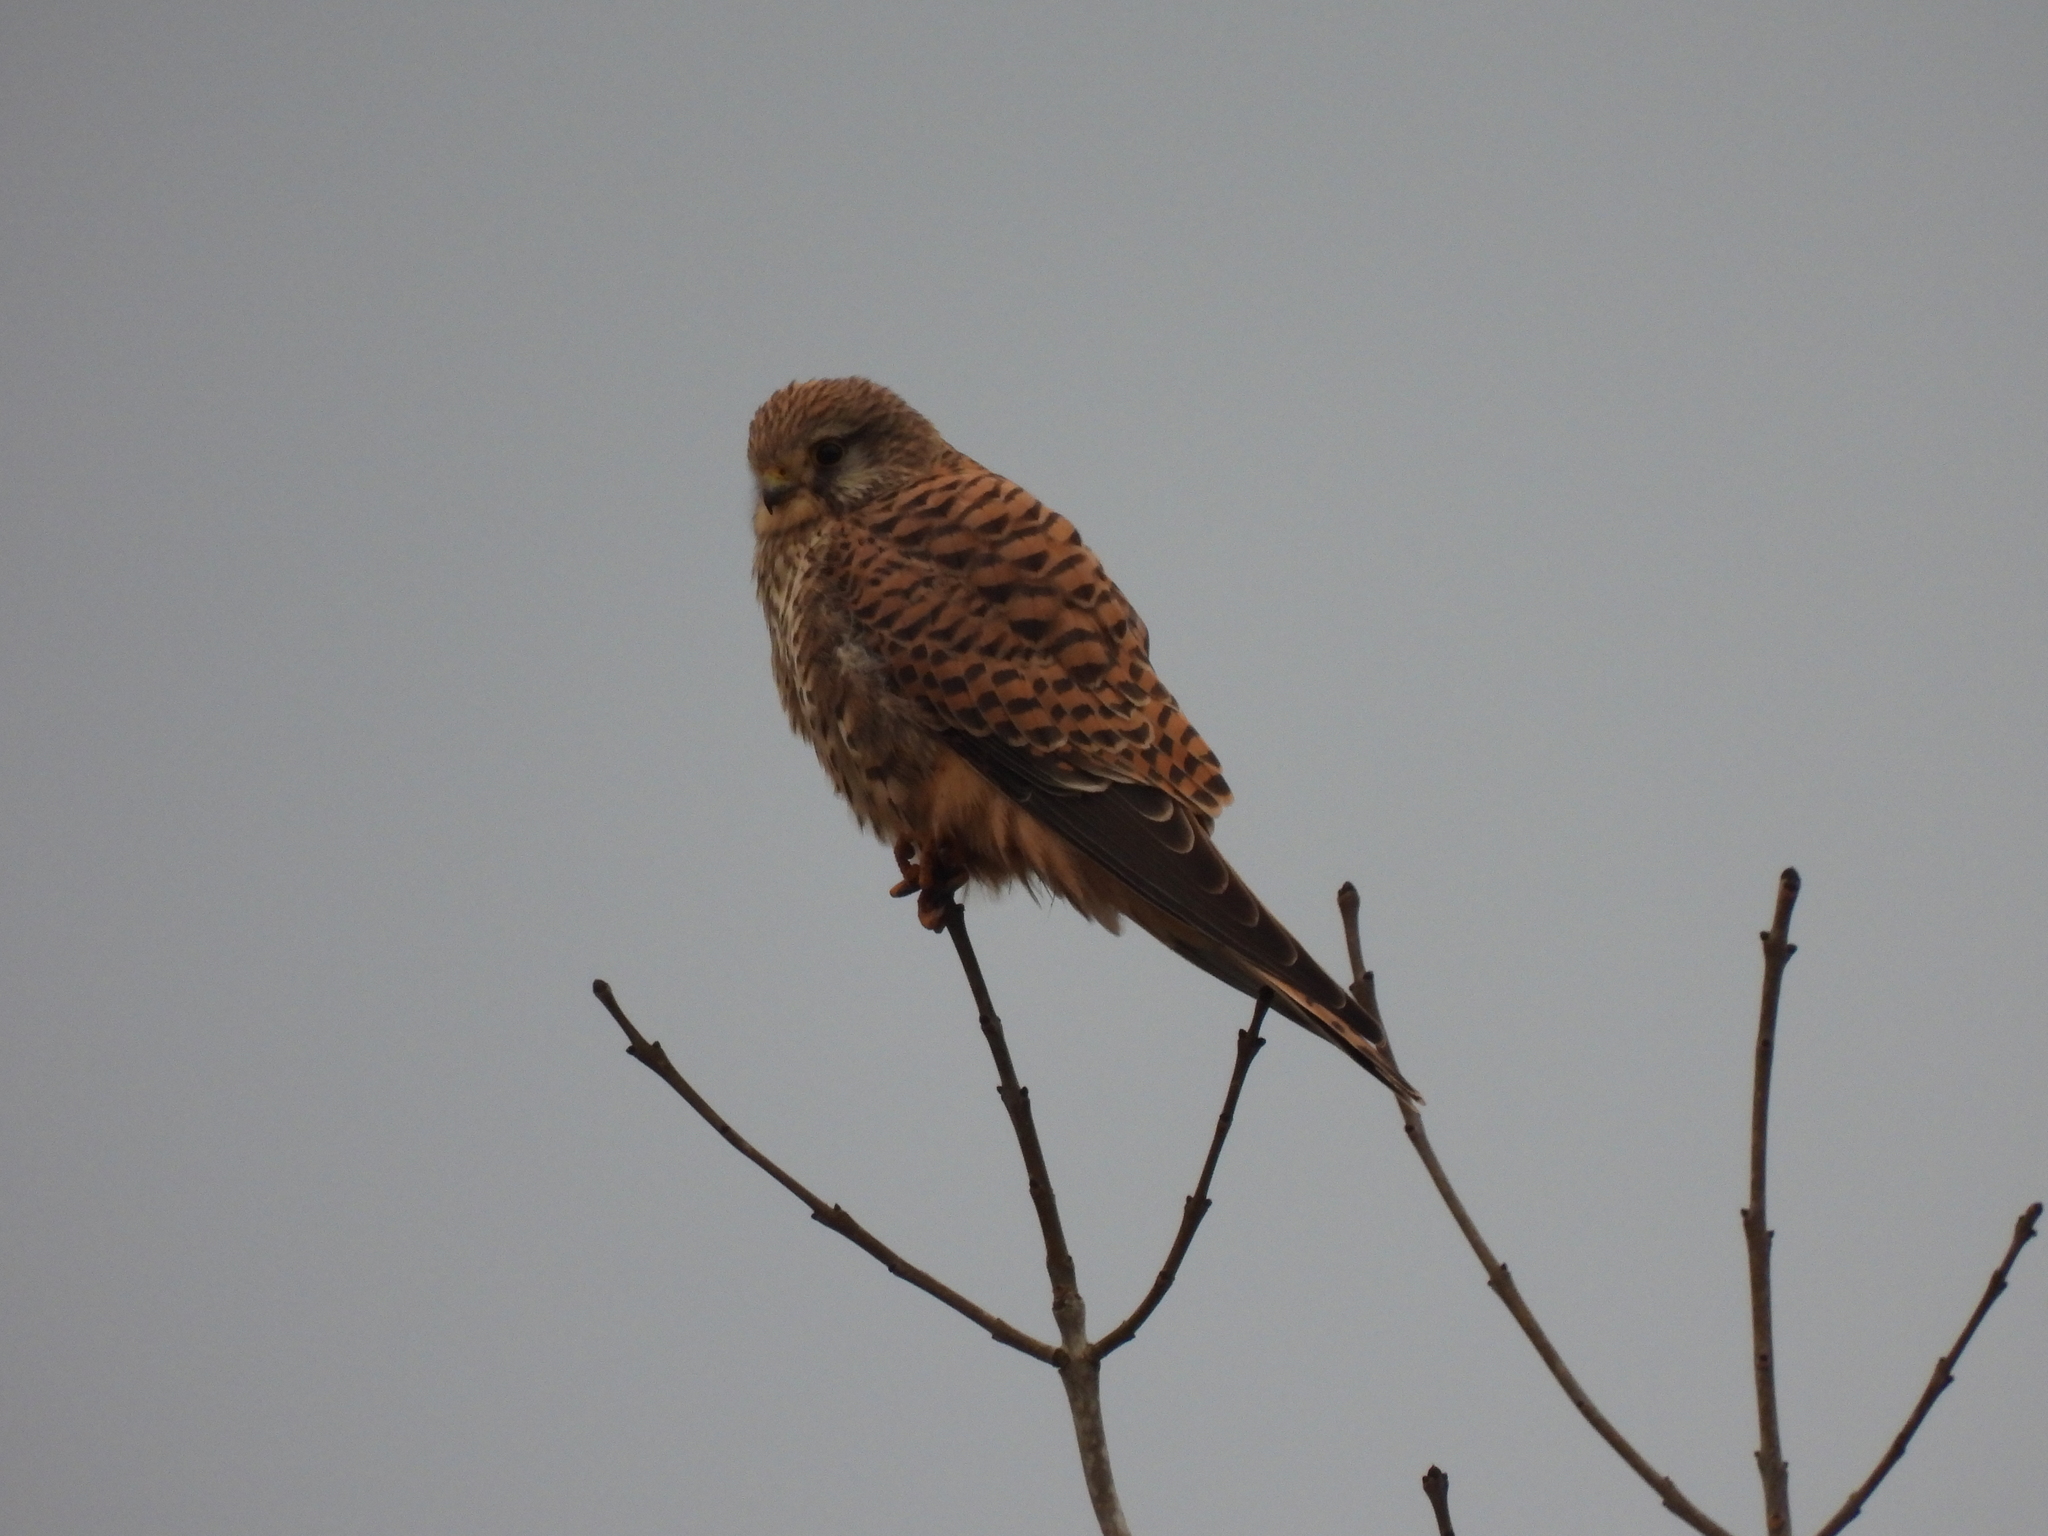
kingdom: Animalia
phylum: Chordata
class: Aves
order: Falconiformes
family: Falconidae
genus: Falco
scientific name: Falco tinnunculus
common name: Common kestrel
